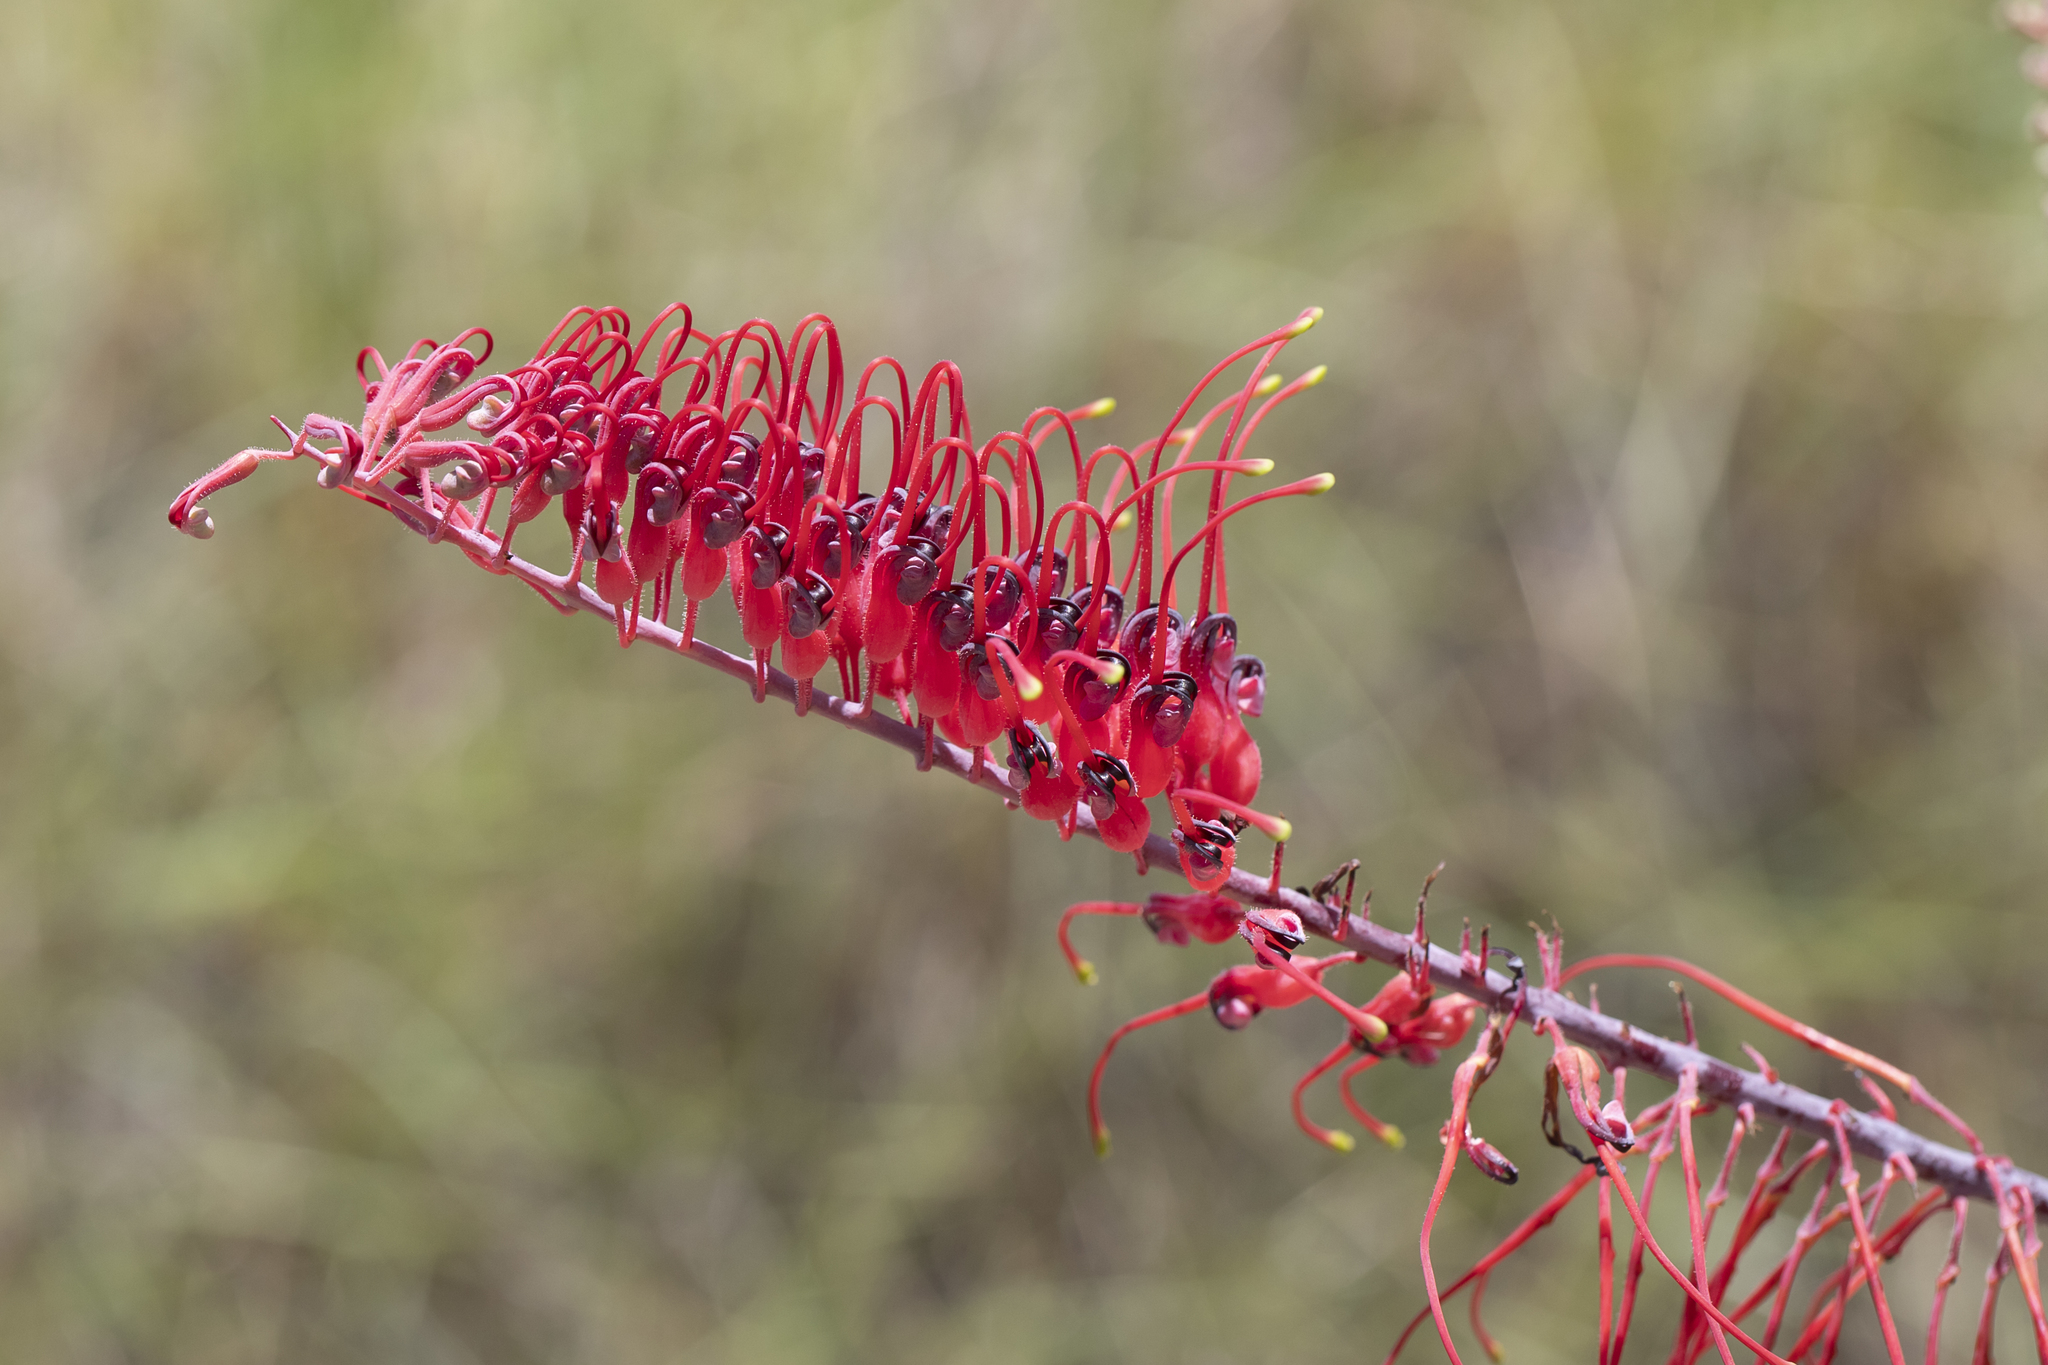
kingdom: Plantae
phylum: Tracheophyta
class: Magnoliopsida
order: Proteales
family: Proteaceae
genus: Grevillea
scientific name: Grevillea dryandri
